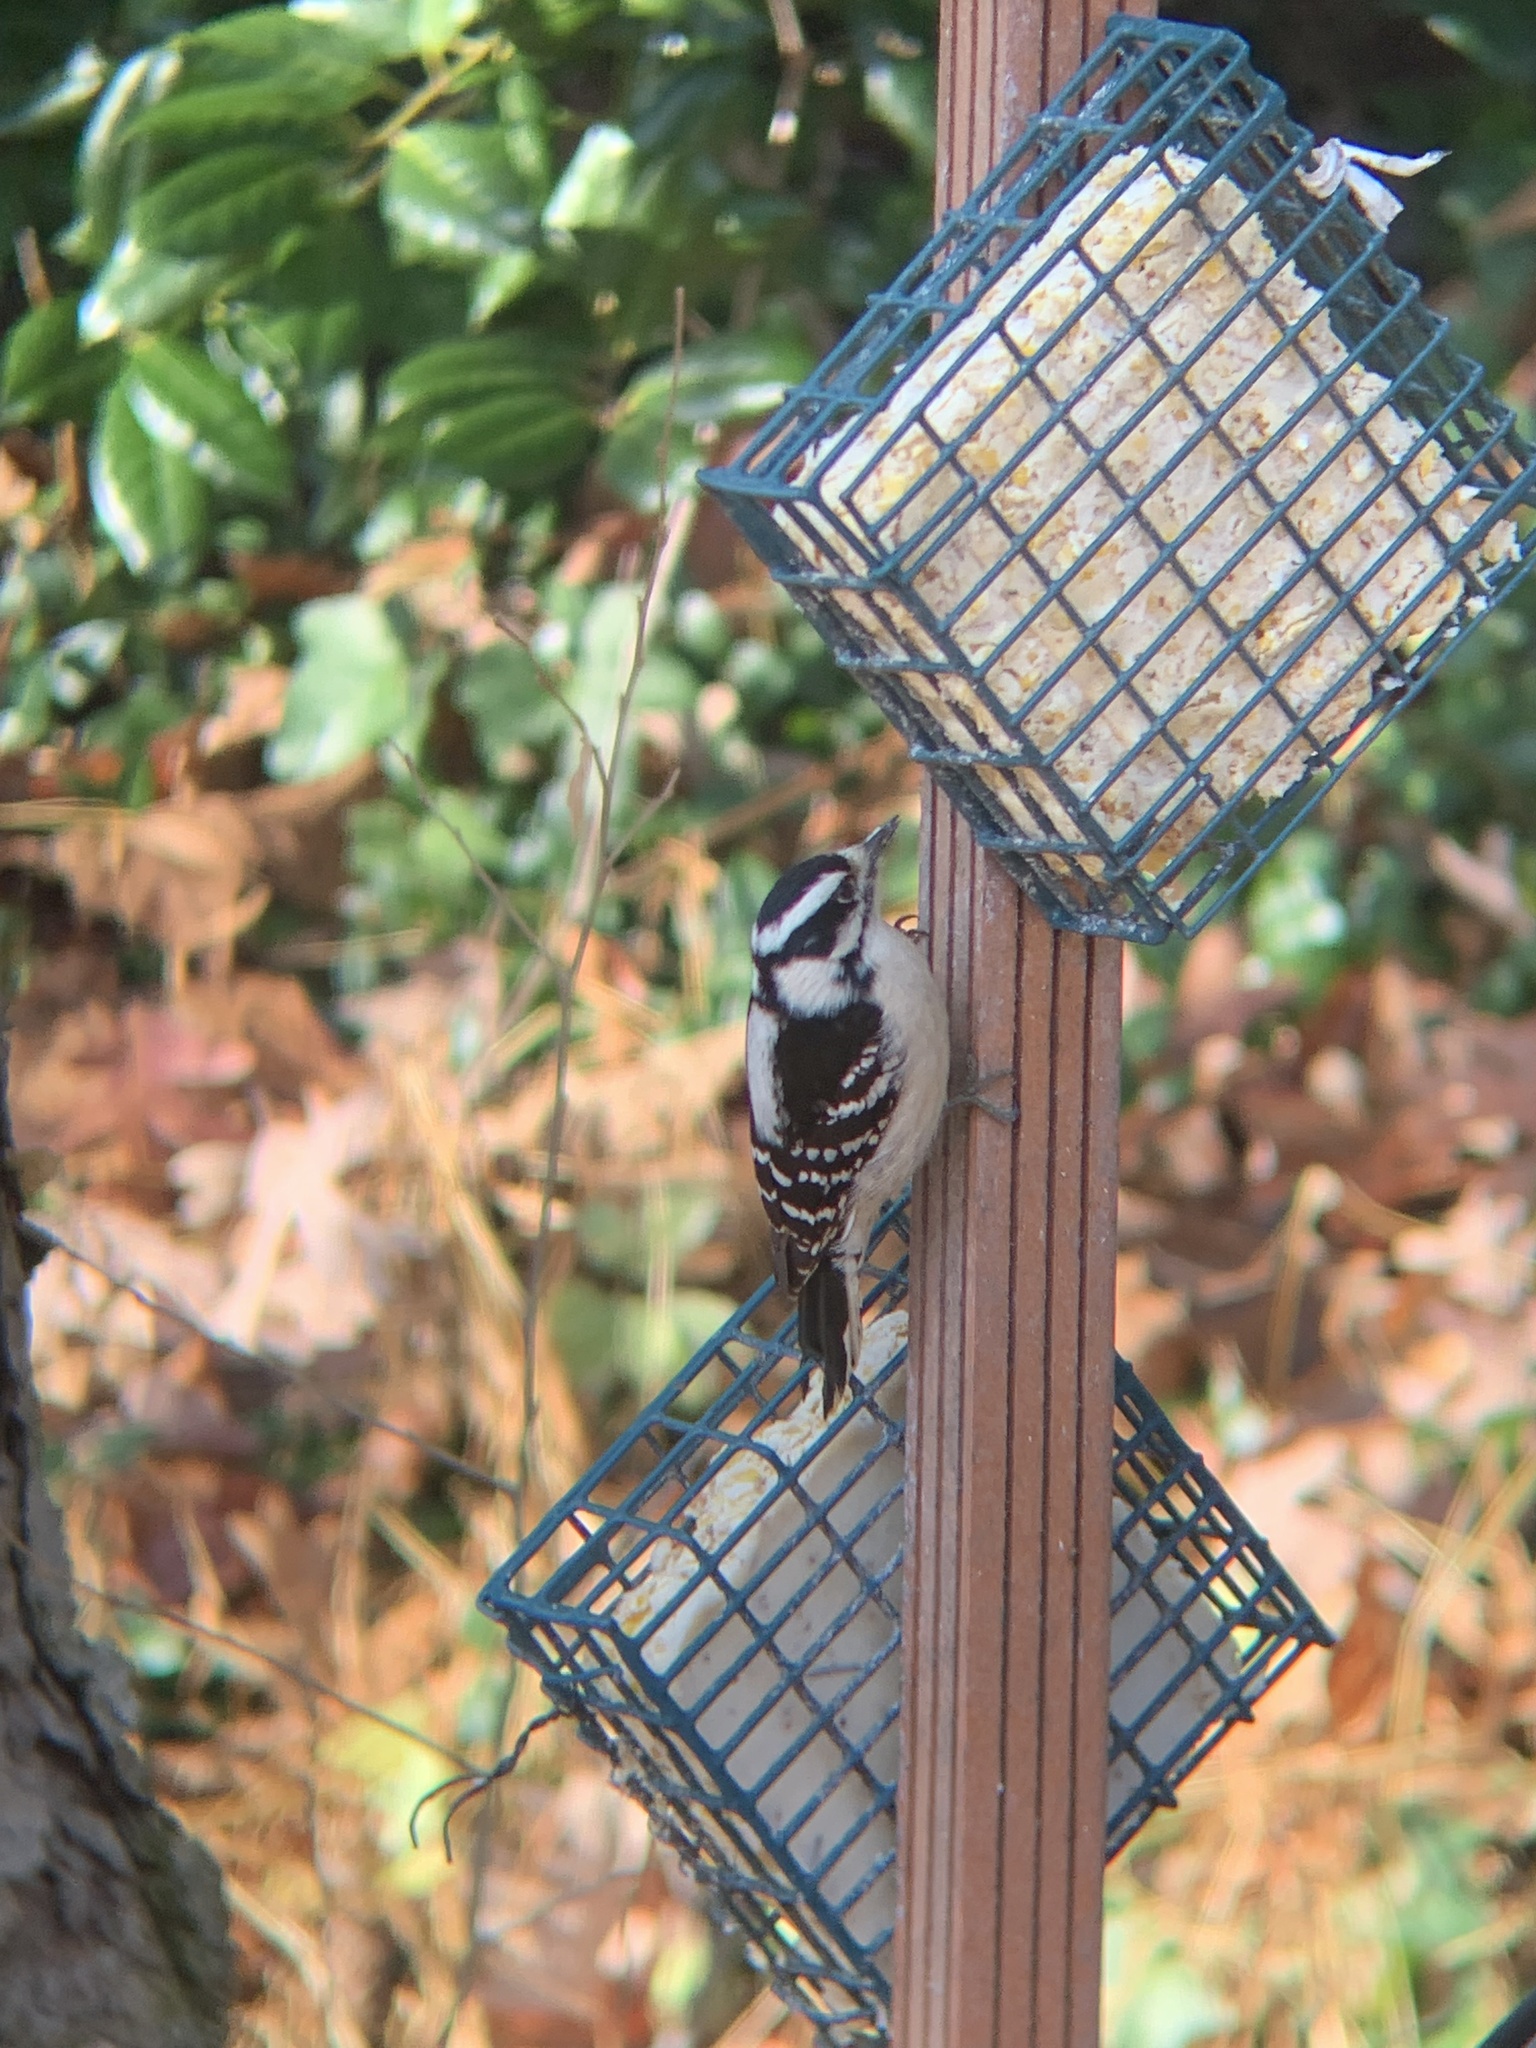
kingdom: Animalia
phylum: Chordata
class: Aves
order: Piciformes
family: Picidae
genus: Dryobates
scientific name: Dryobates pubescens
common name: Downy woodpecker
